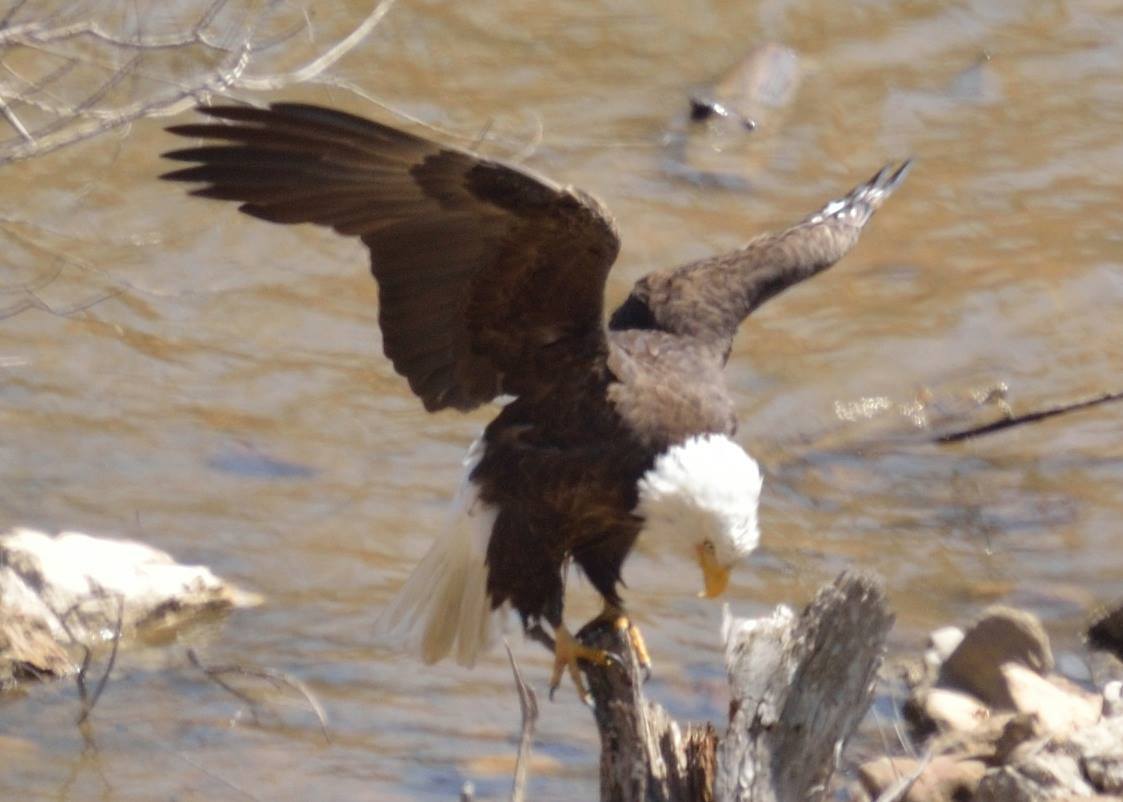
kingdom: Animalia
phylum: Chordata
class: Aves
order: Accipitriformes
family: Accipitridae
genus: Haliaeetus
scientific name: Haliaeetus leucocephalus
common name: Bald eagle
